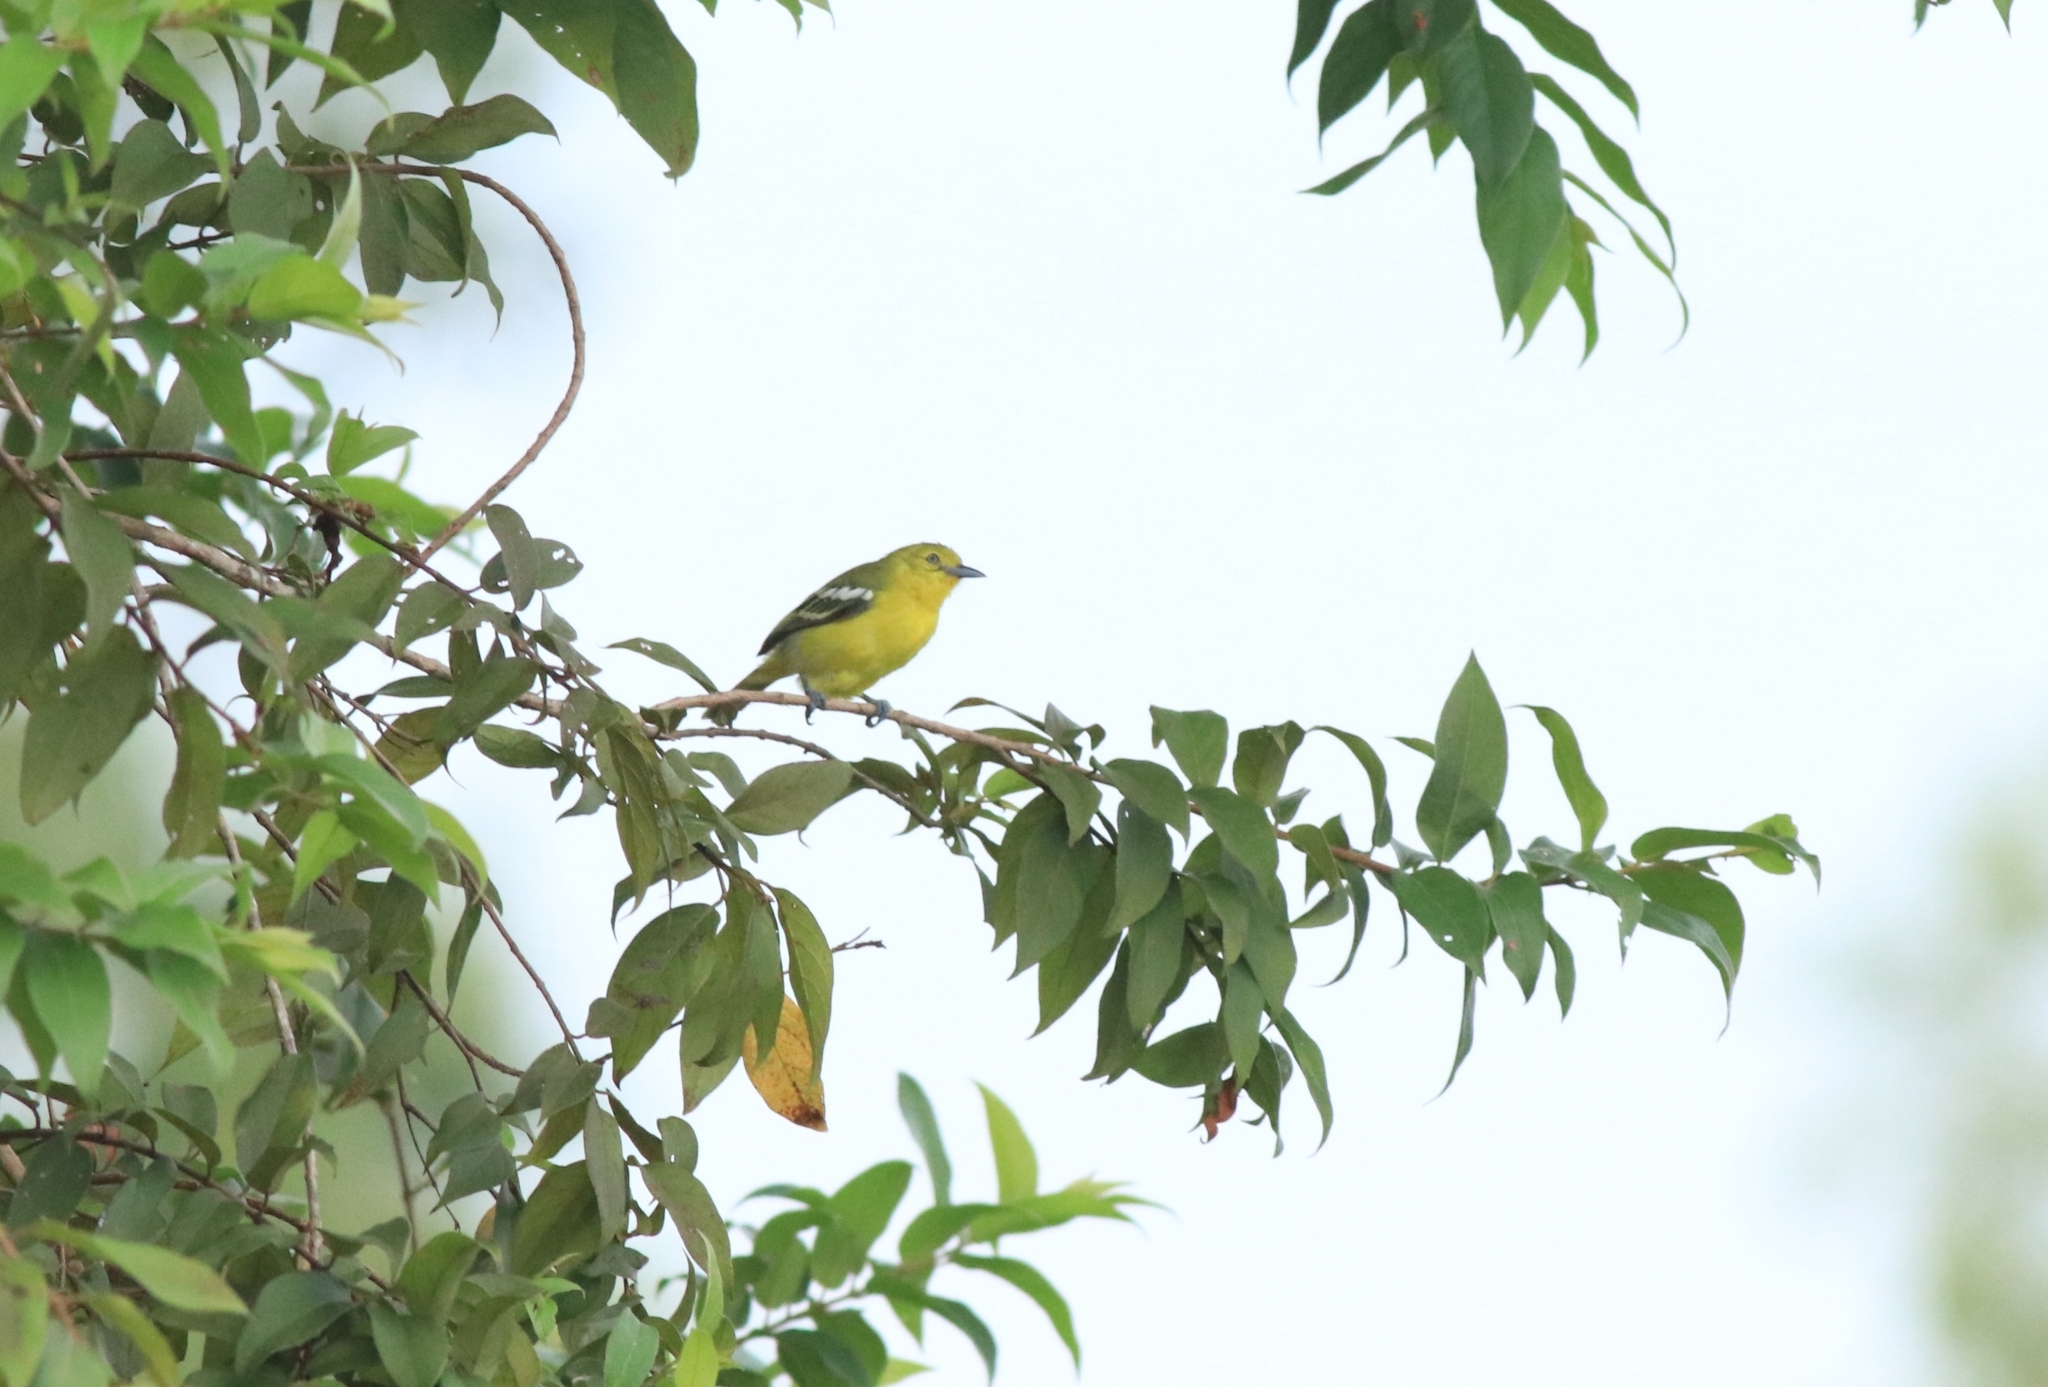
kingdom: Animalia
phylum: Chordata
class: Aves
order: Passeriformes
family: Aegithinidae
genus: Aegithina
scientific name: Aegithina tiphia
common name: Common iora
